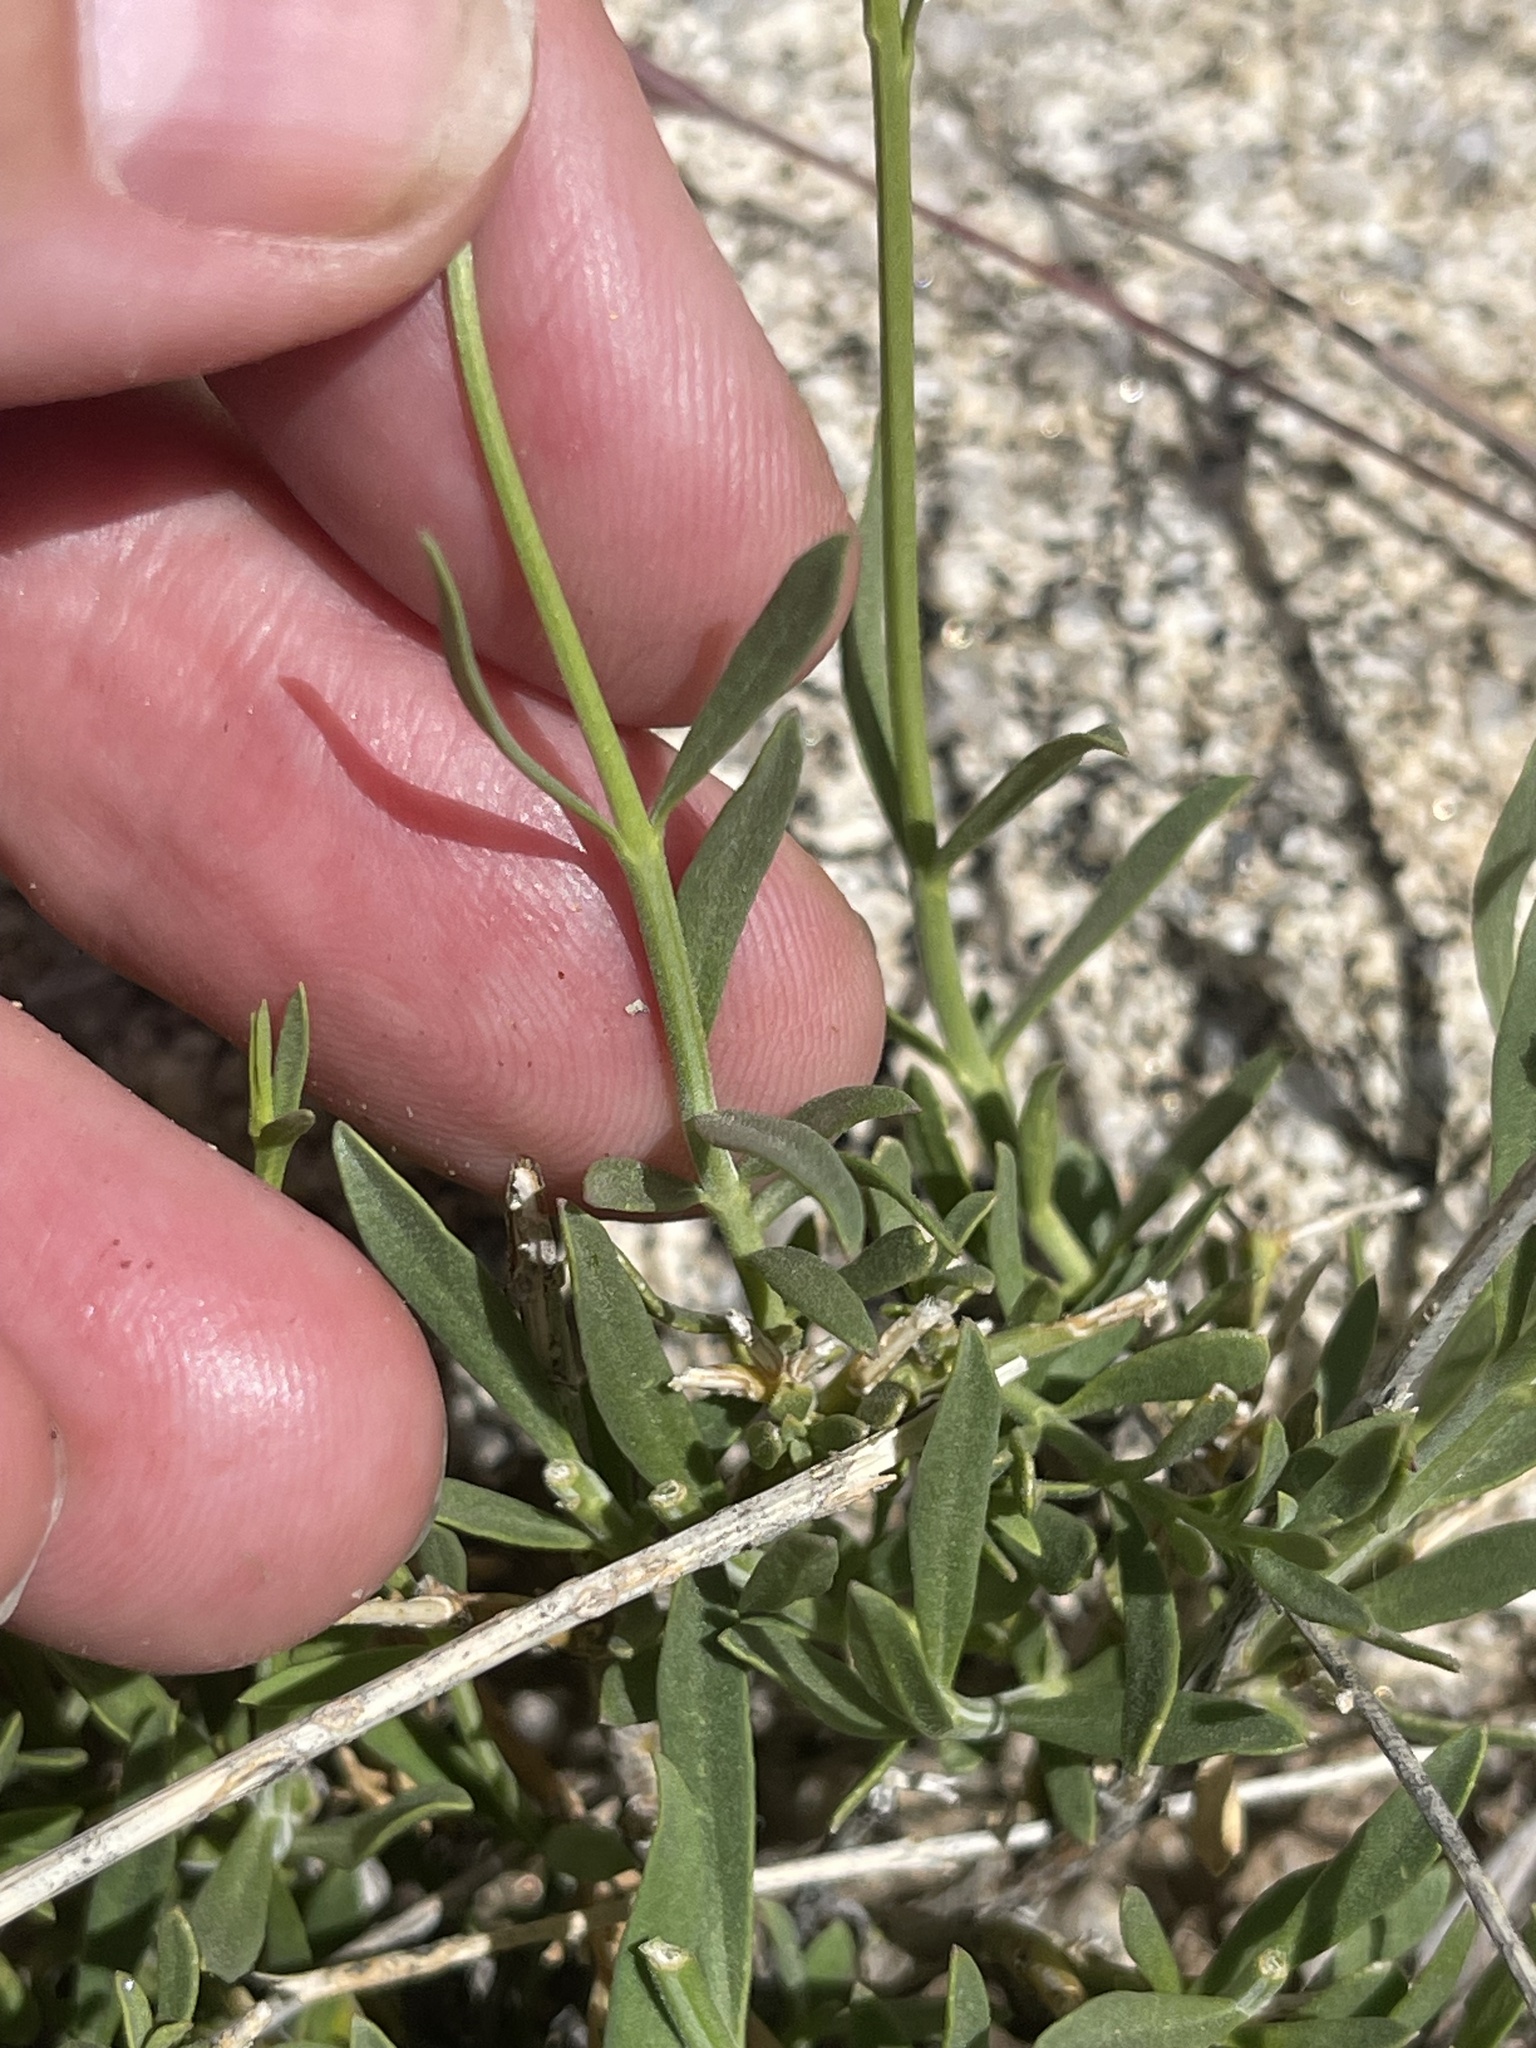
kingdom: Plantae
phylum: Tracheophyta
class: Magnoliopsida
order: Lamiales
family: Oleaceae
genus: Menodora
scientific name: Menodora scabra
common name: Rough menodora
